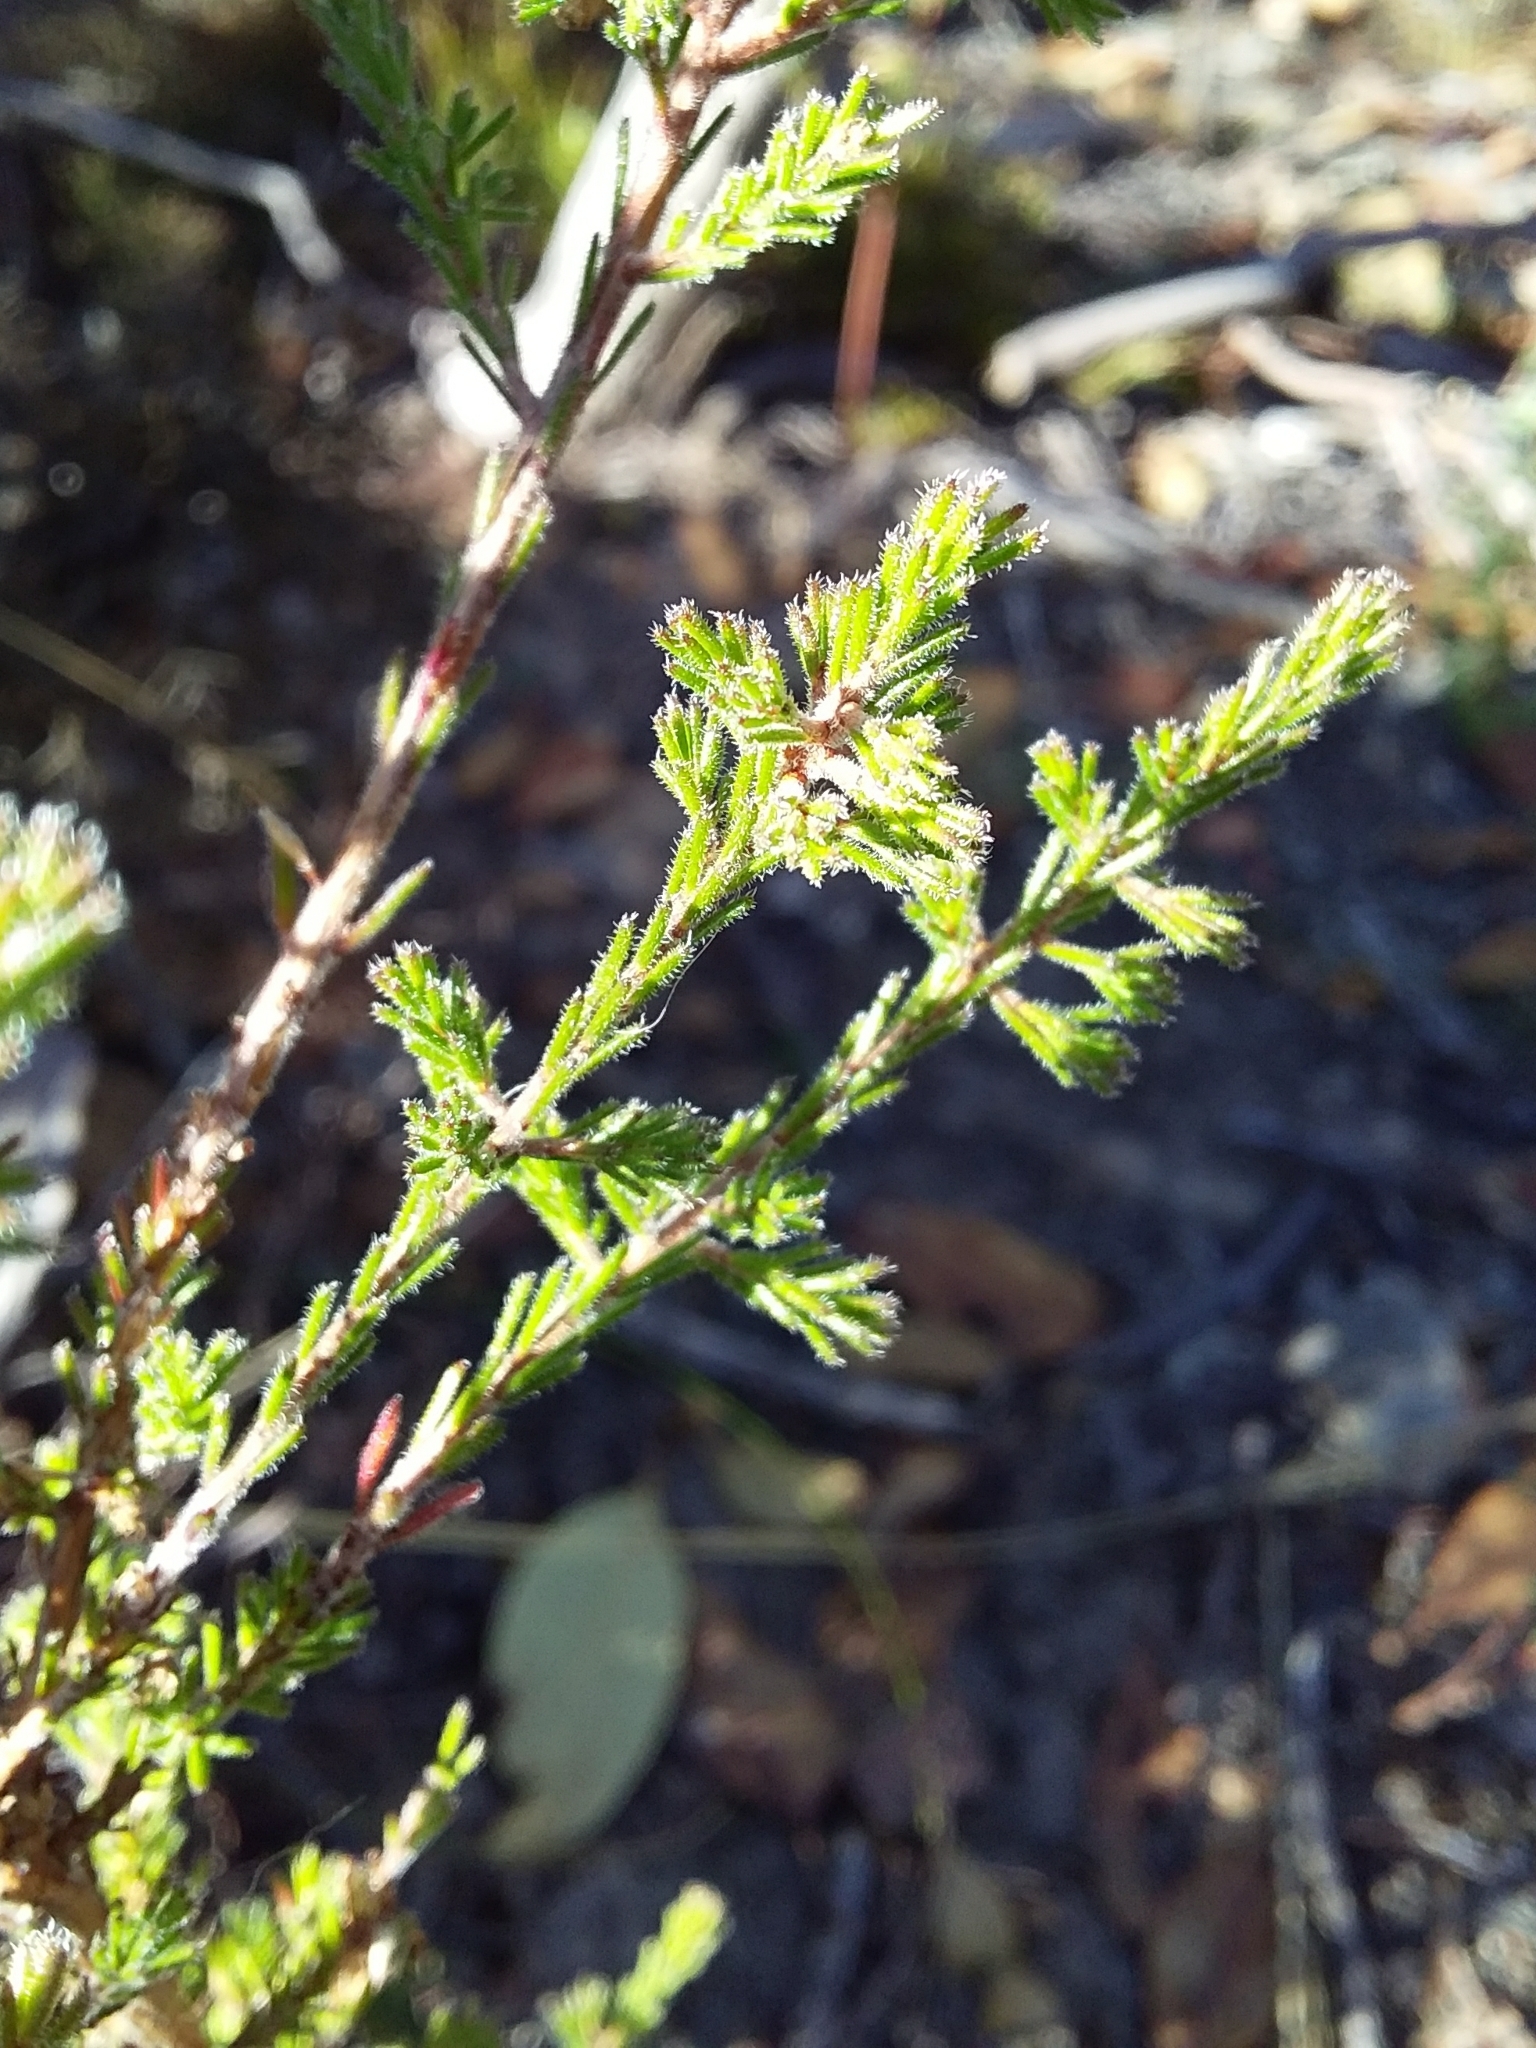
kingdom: Plantae
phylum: Tracheophyta
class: Magnoliopsida
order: Myrtales
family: Myrtaceae
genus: Calytrix
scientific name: Calytrix tetragona
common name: Common fringe myrtle
